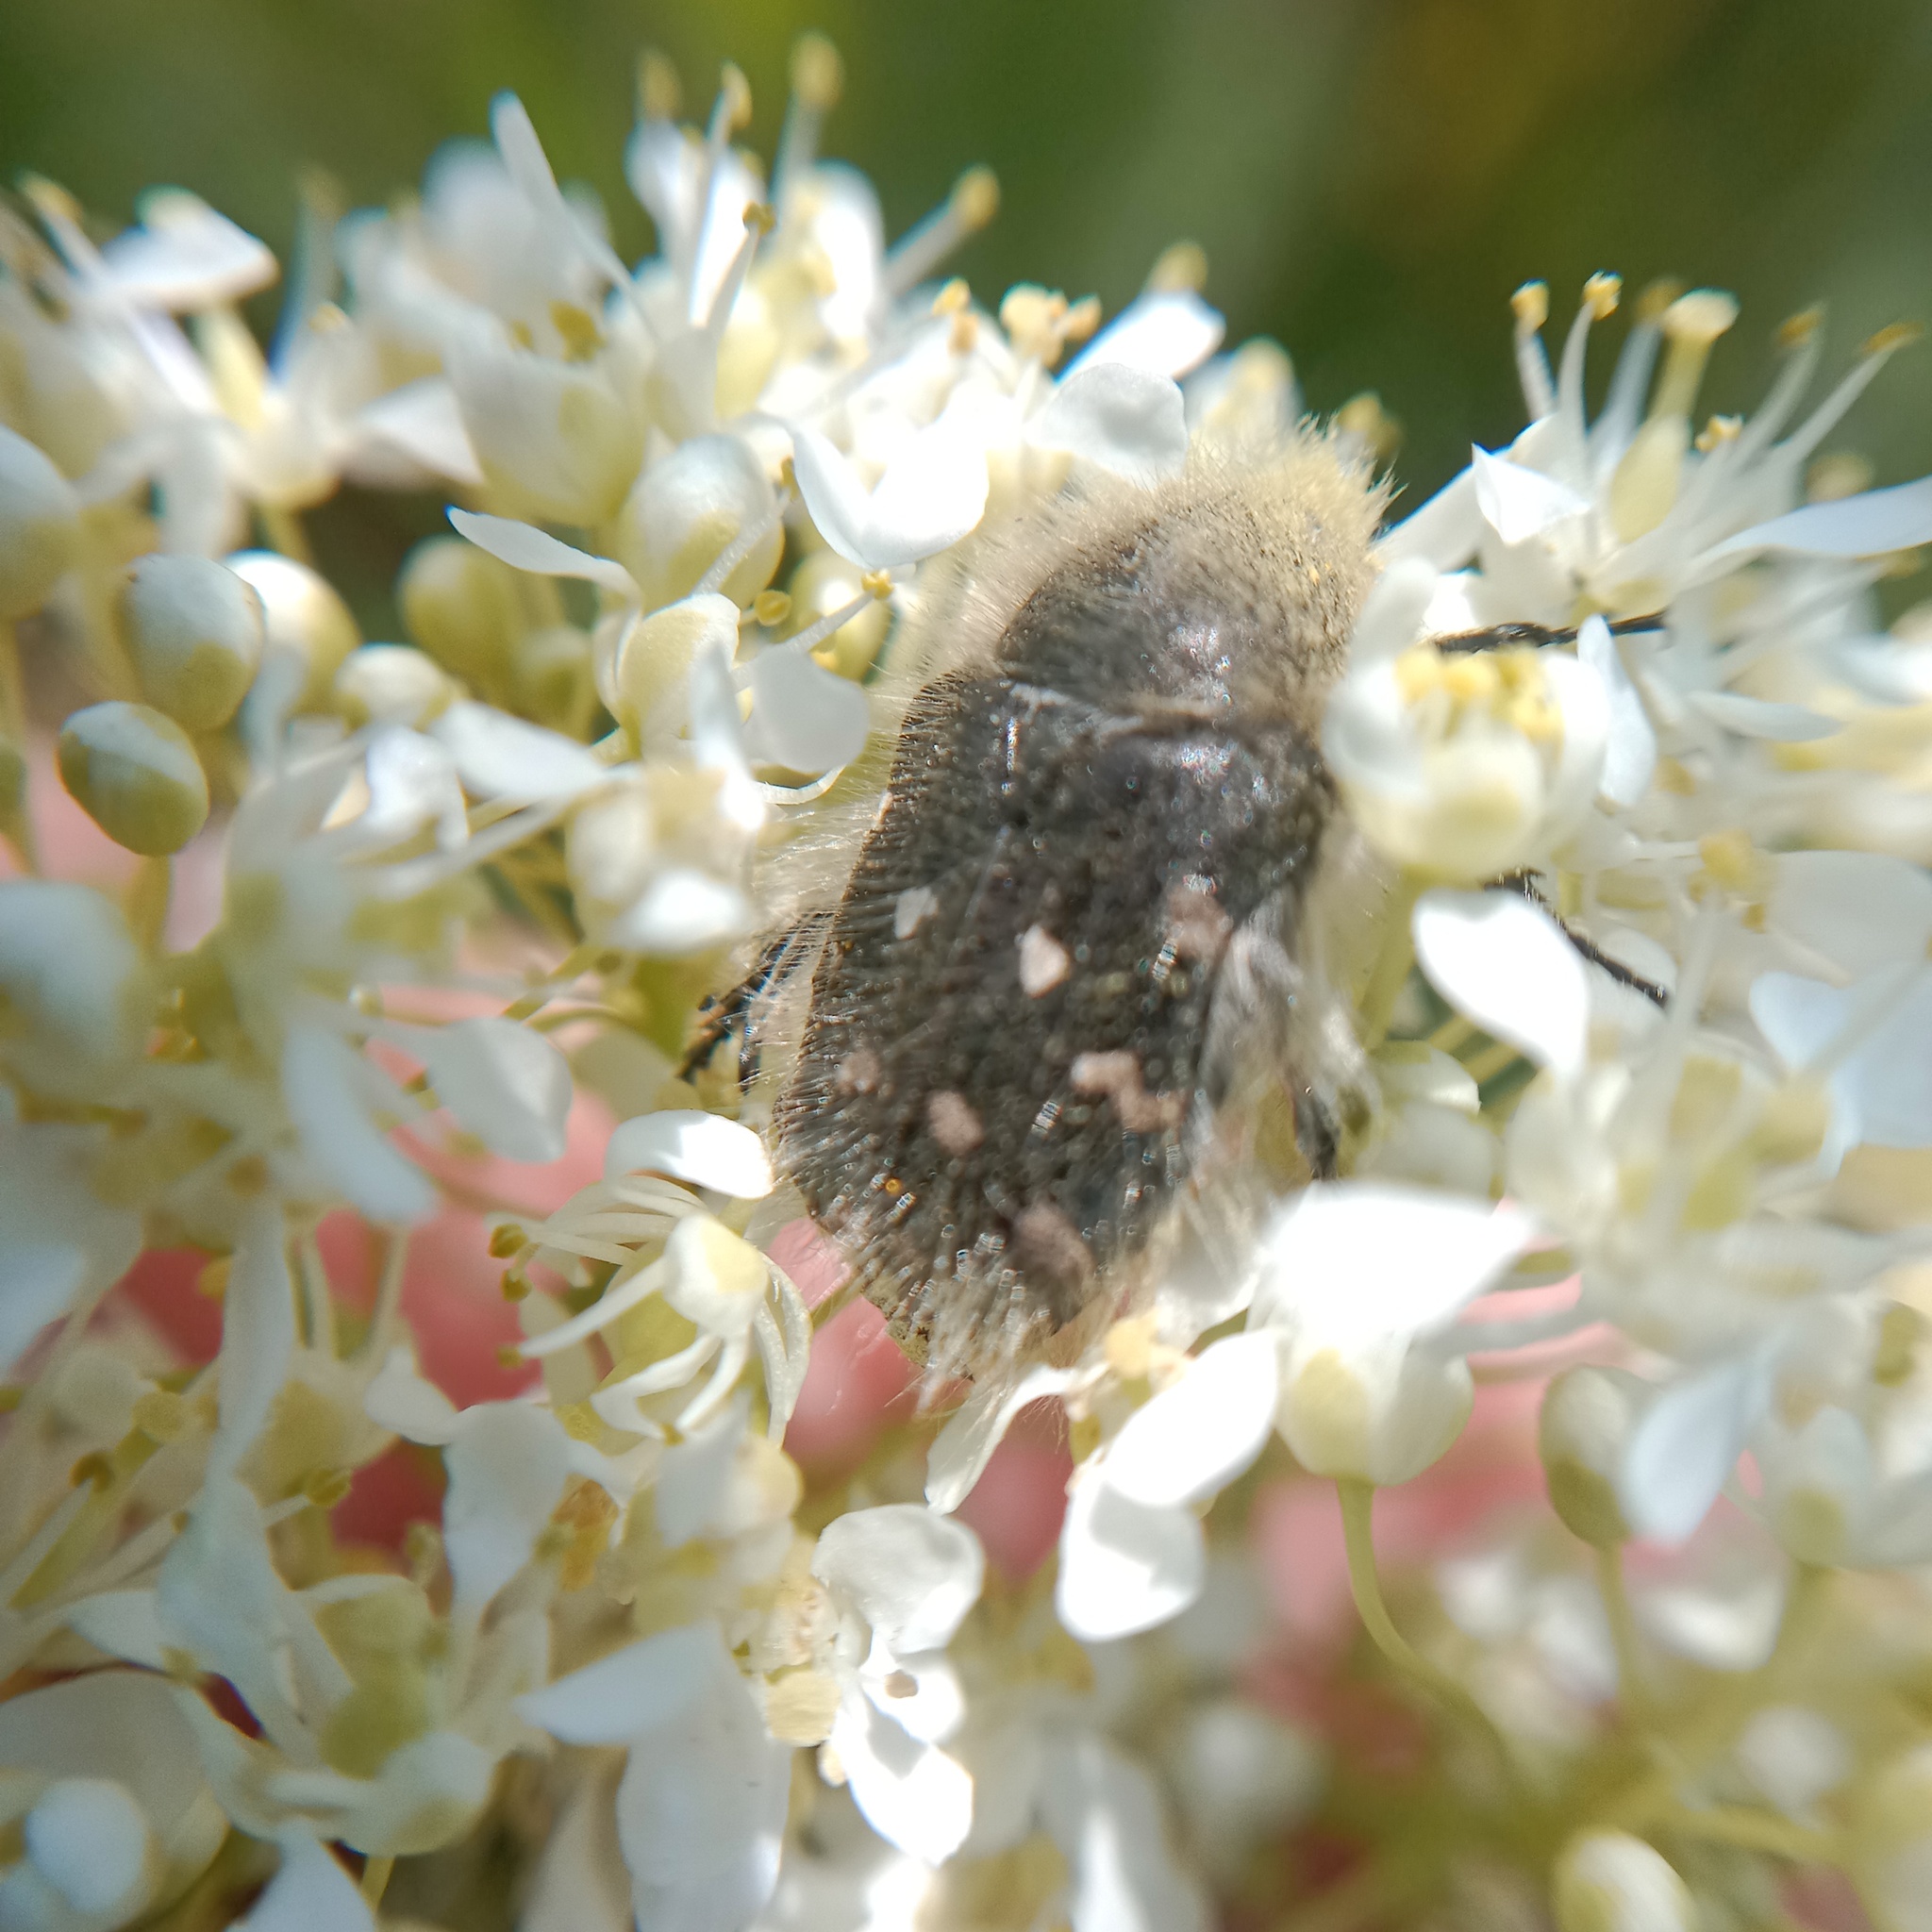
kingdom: Animalia
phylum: Arthropoda
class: Insecta
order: Coleoptera
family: Scarabaeidae
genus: Tropinota
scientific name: Tropinota hirta
